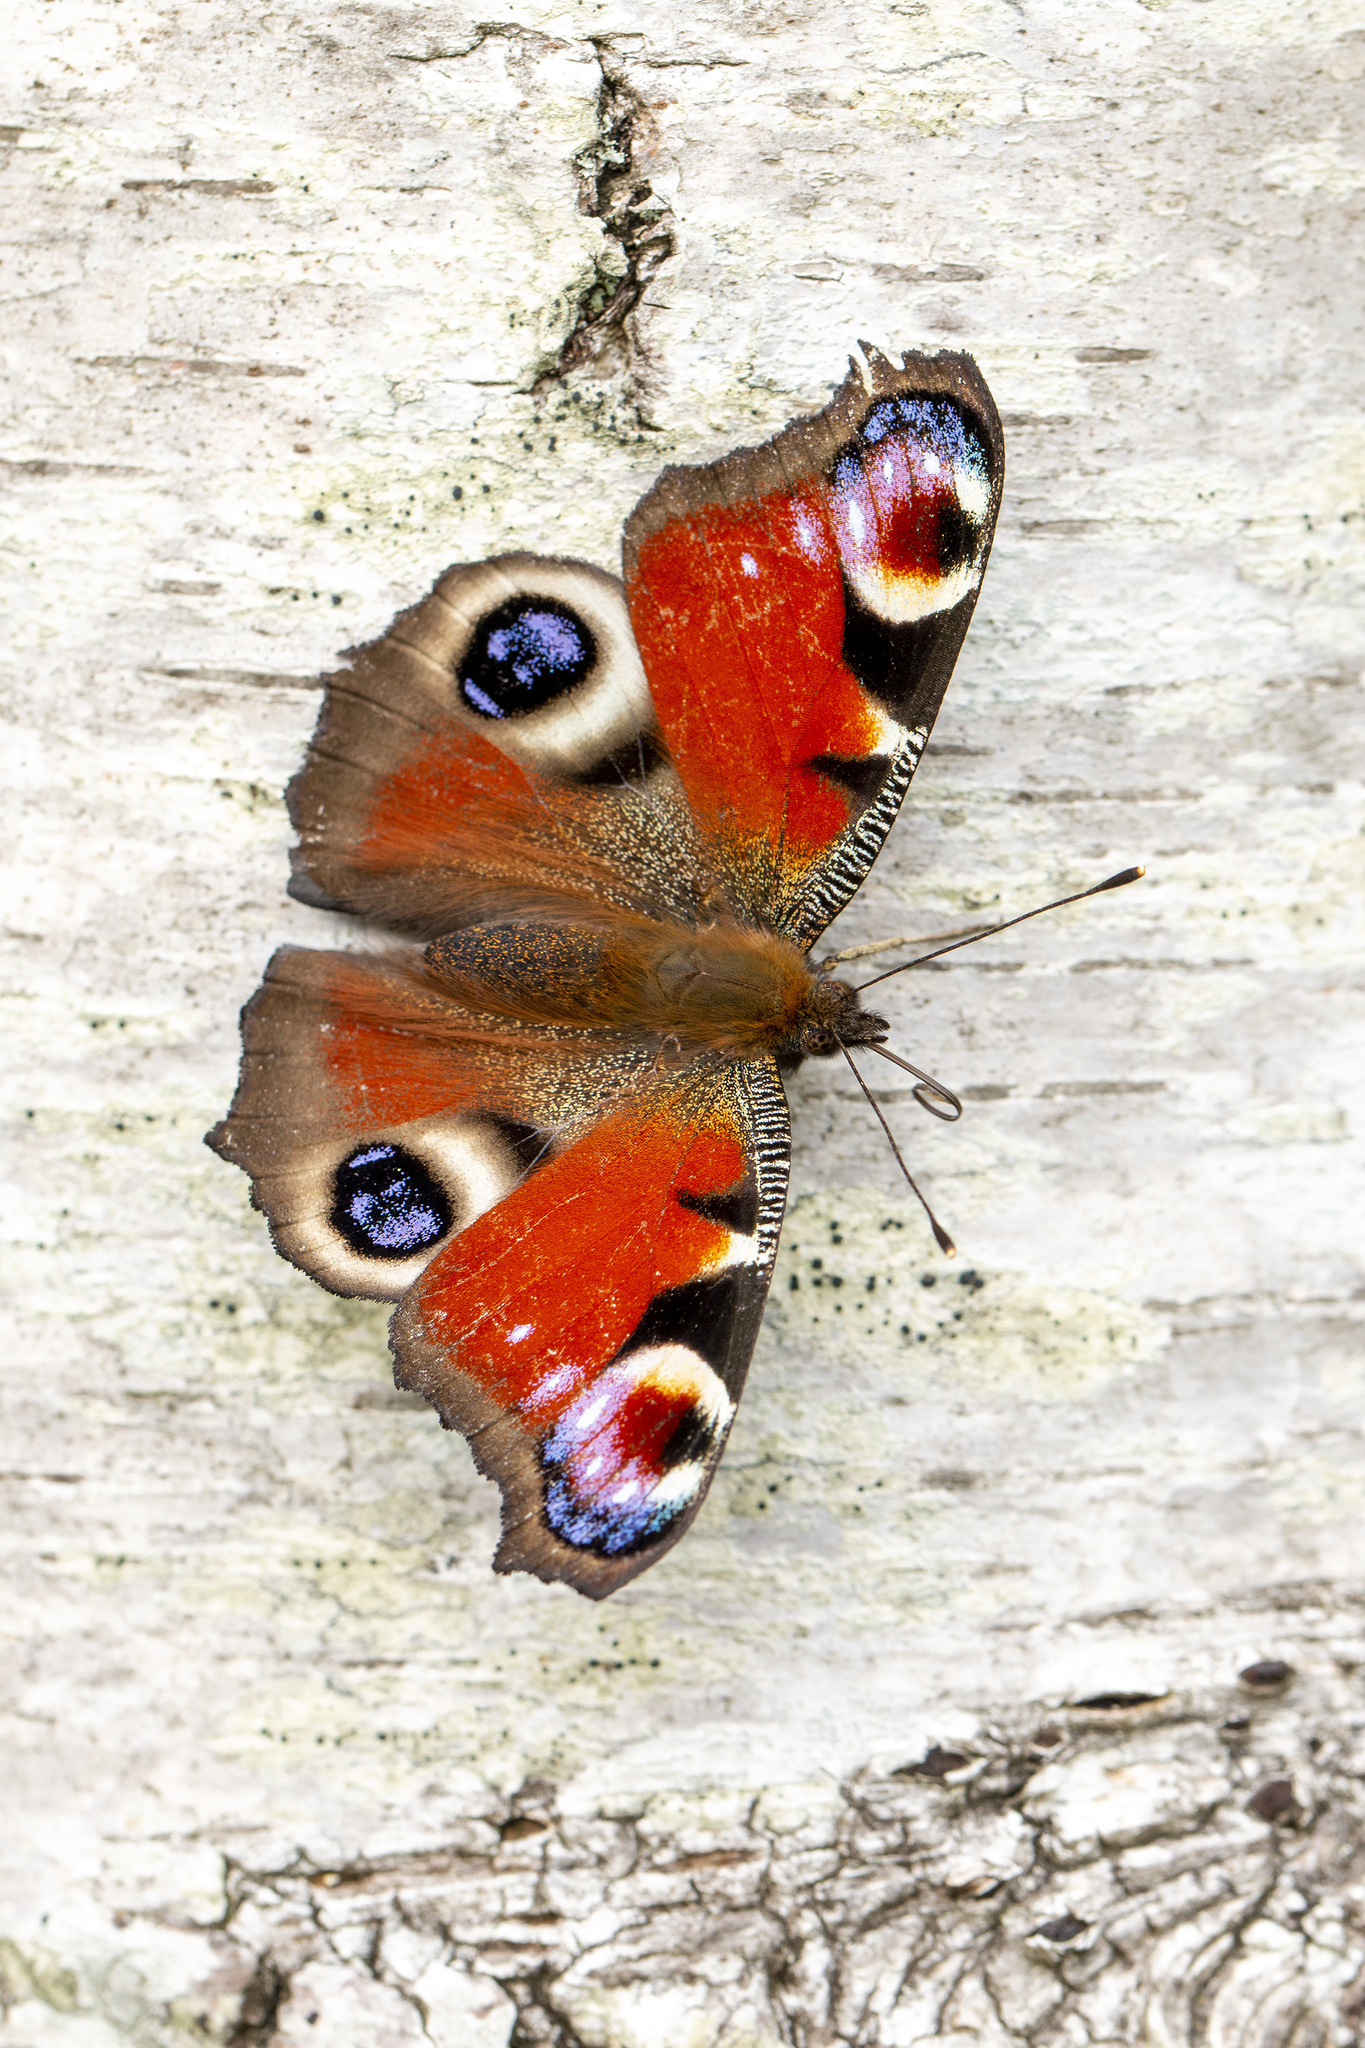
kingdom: Animalia
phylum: Arthropoda
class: Insecta
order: Lepidoptera
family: Nymphalidae
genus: Aglais
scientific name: Aglais io
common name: Peacock
